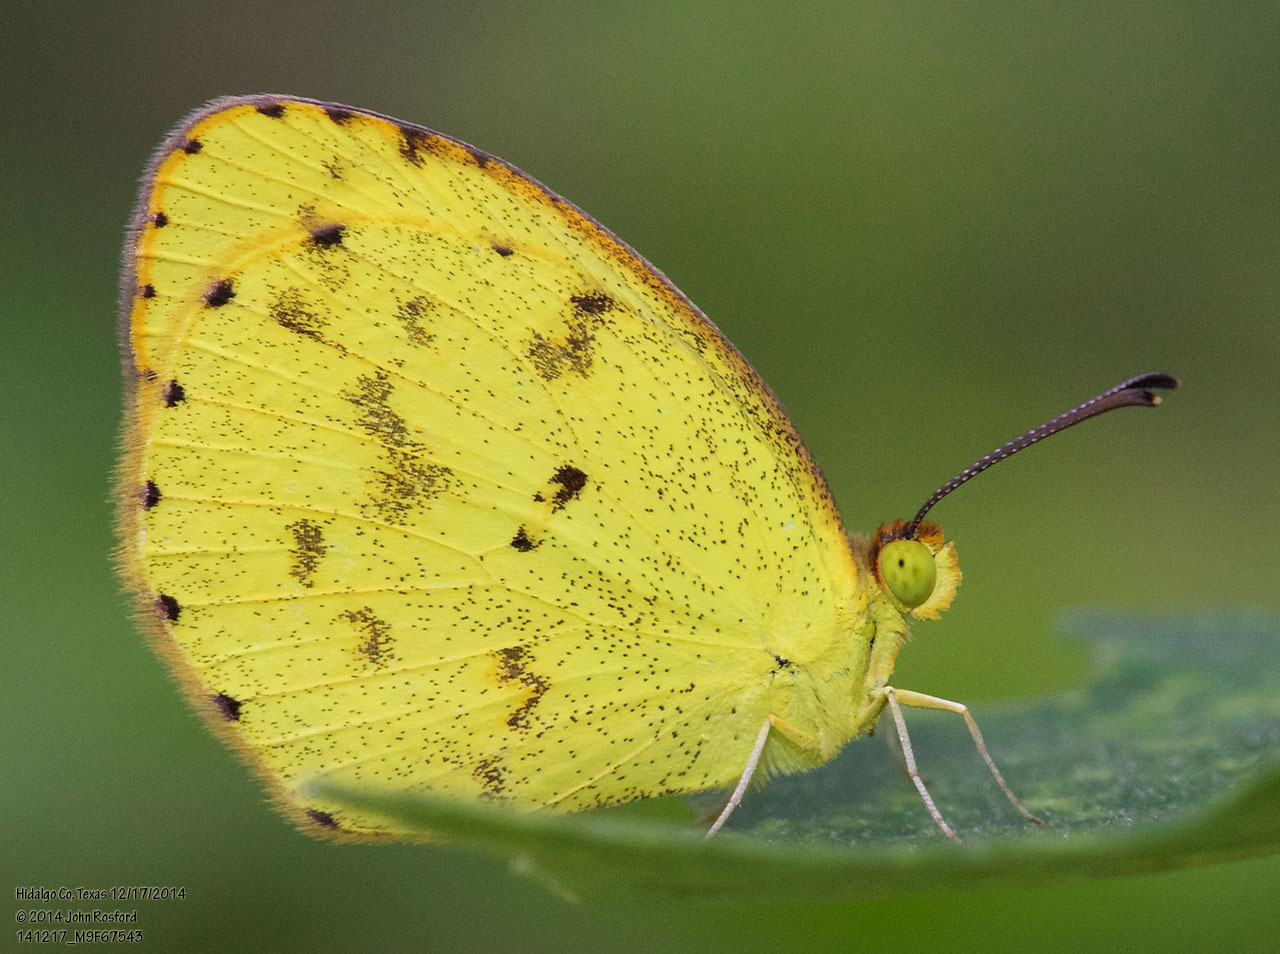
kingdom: Animalia
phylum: Arthropoda
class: Insecta
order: Lepidoptera
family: Pieridae
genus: Pyrisitia
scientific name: Pyrisitia nise
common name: Mimosa yellow
